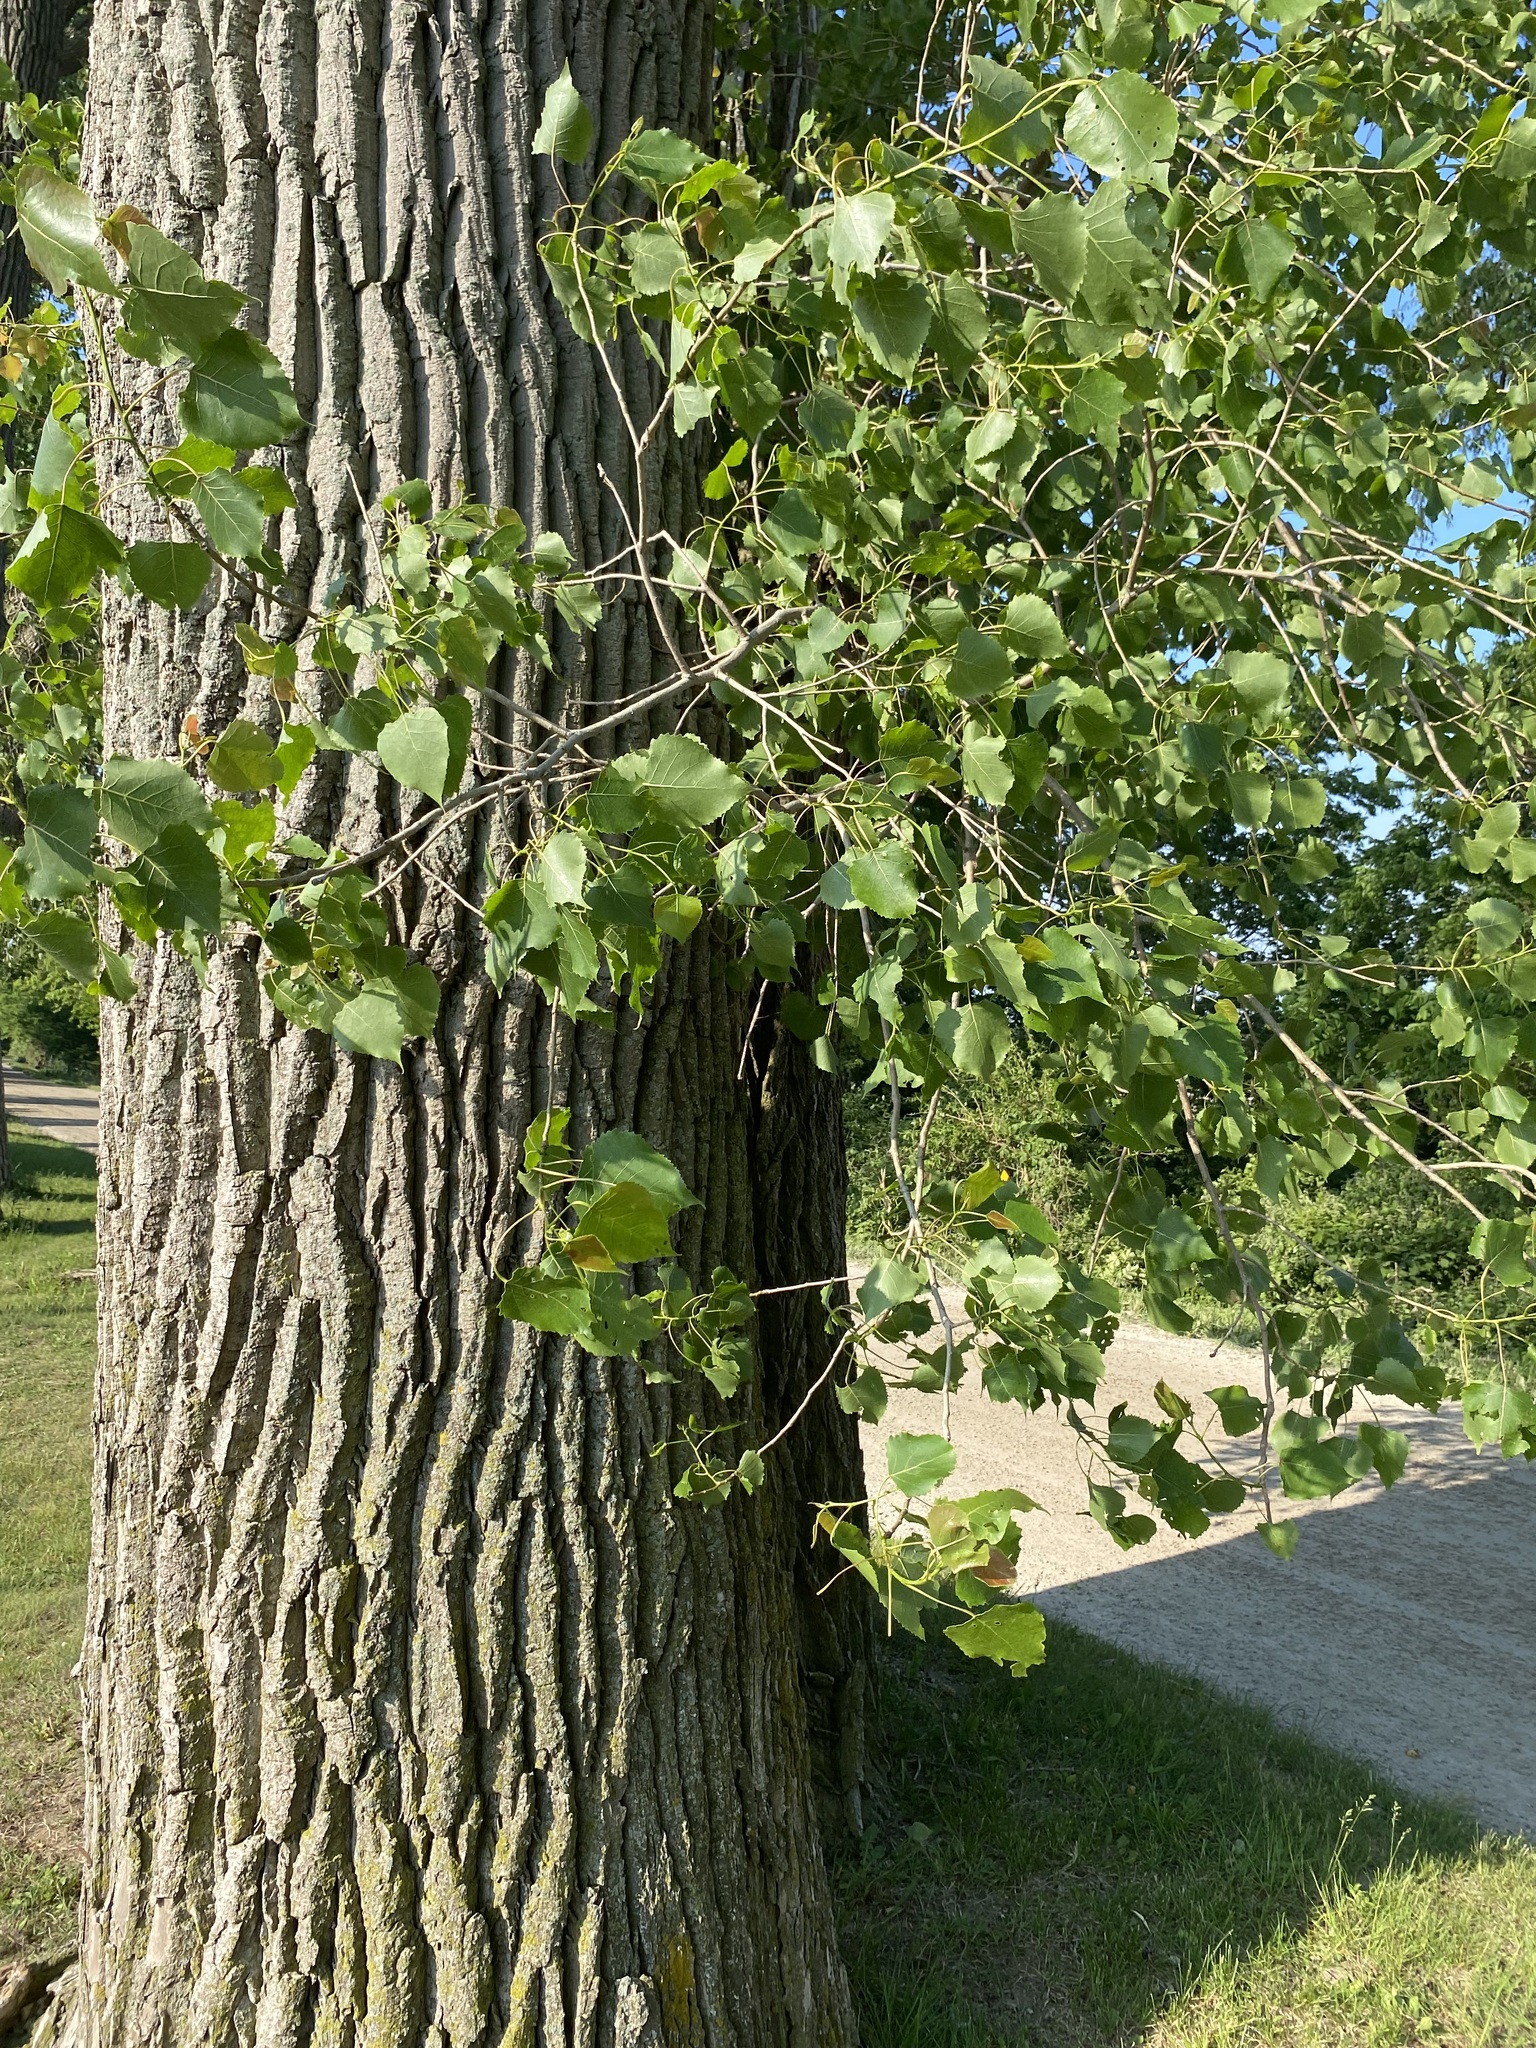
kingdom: Plantae
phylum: Tracheophyta
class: Magnoliopsida
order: Malpighiales
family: Salicaceae
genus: Populus
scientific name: Populus deltoides
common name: Eastern cottonwood
